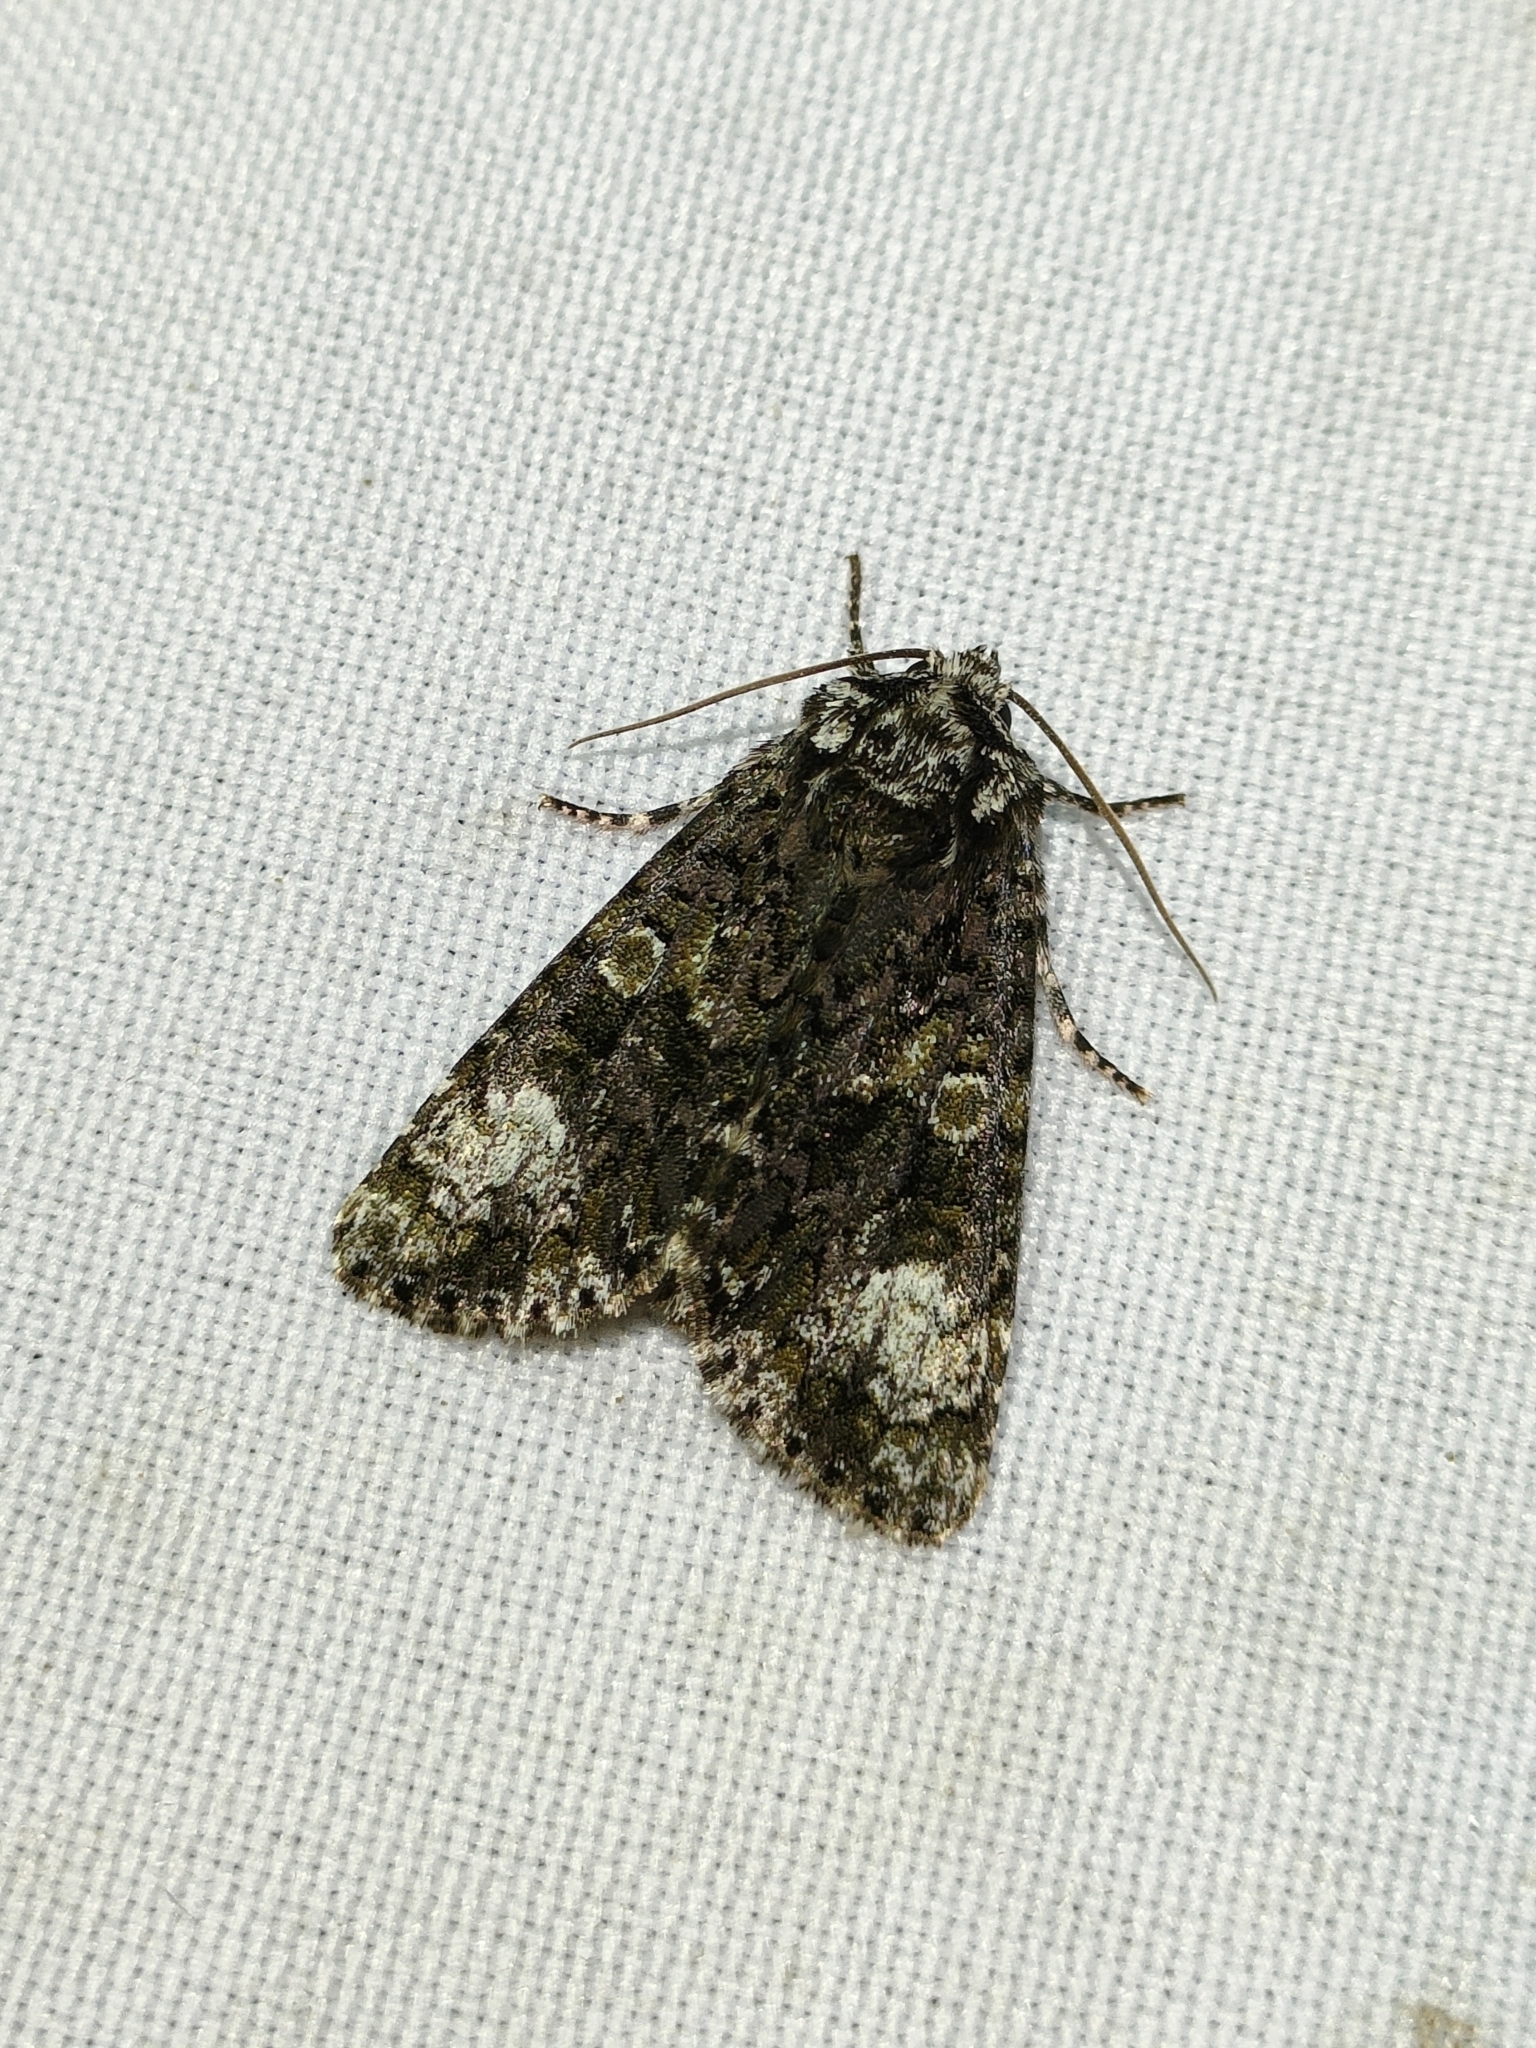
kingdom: Animalia
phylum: Arthropoda
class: Insecta
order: Lepidoptera
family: Noctuidae
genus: Craniophora
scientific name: Craniophora ligustri
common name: Coronet
